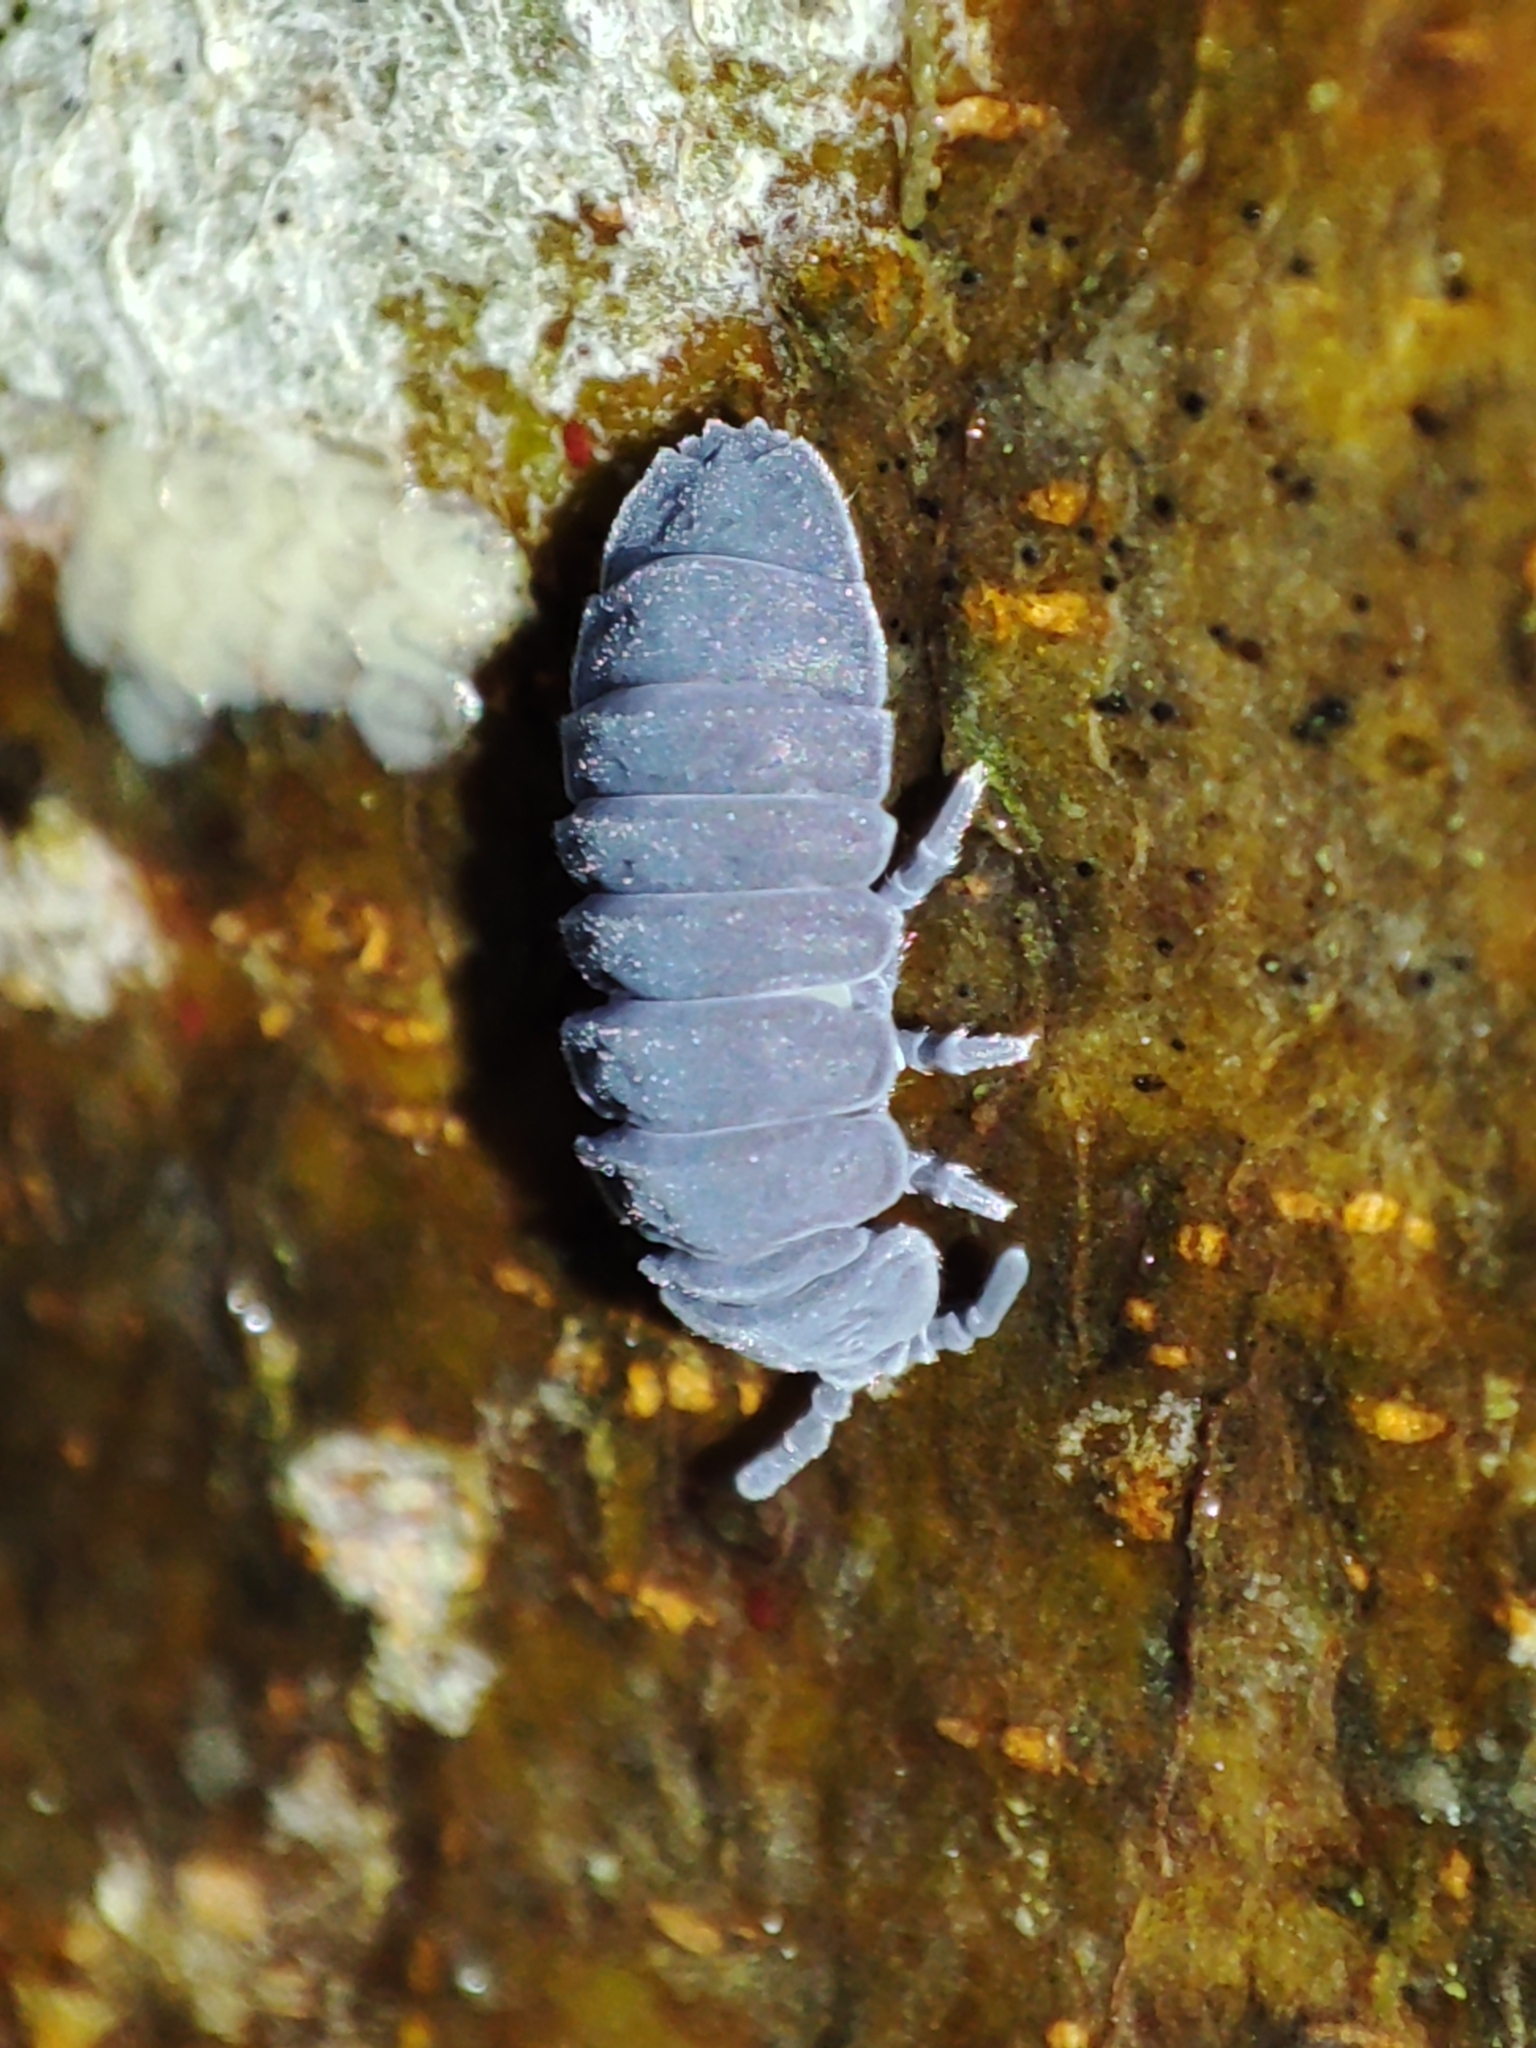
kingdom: Animalia
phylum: Arthropoda
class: Collembola
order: Poduromorpha
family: Onychiuridae
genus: Tetrodontophora
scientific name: Tetrodontophora bielanensis
